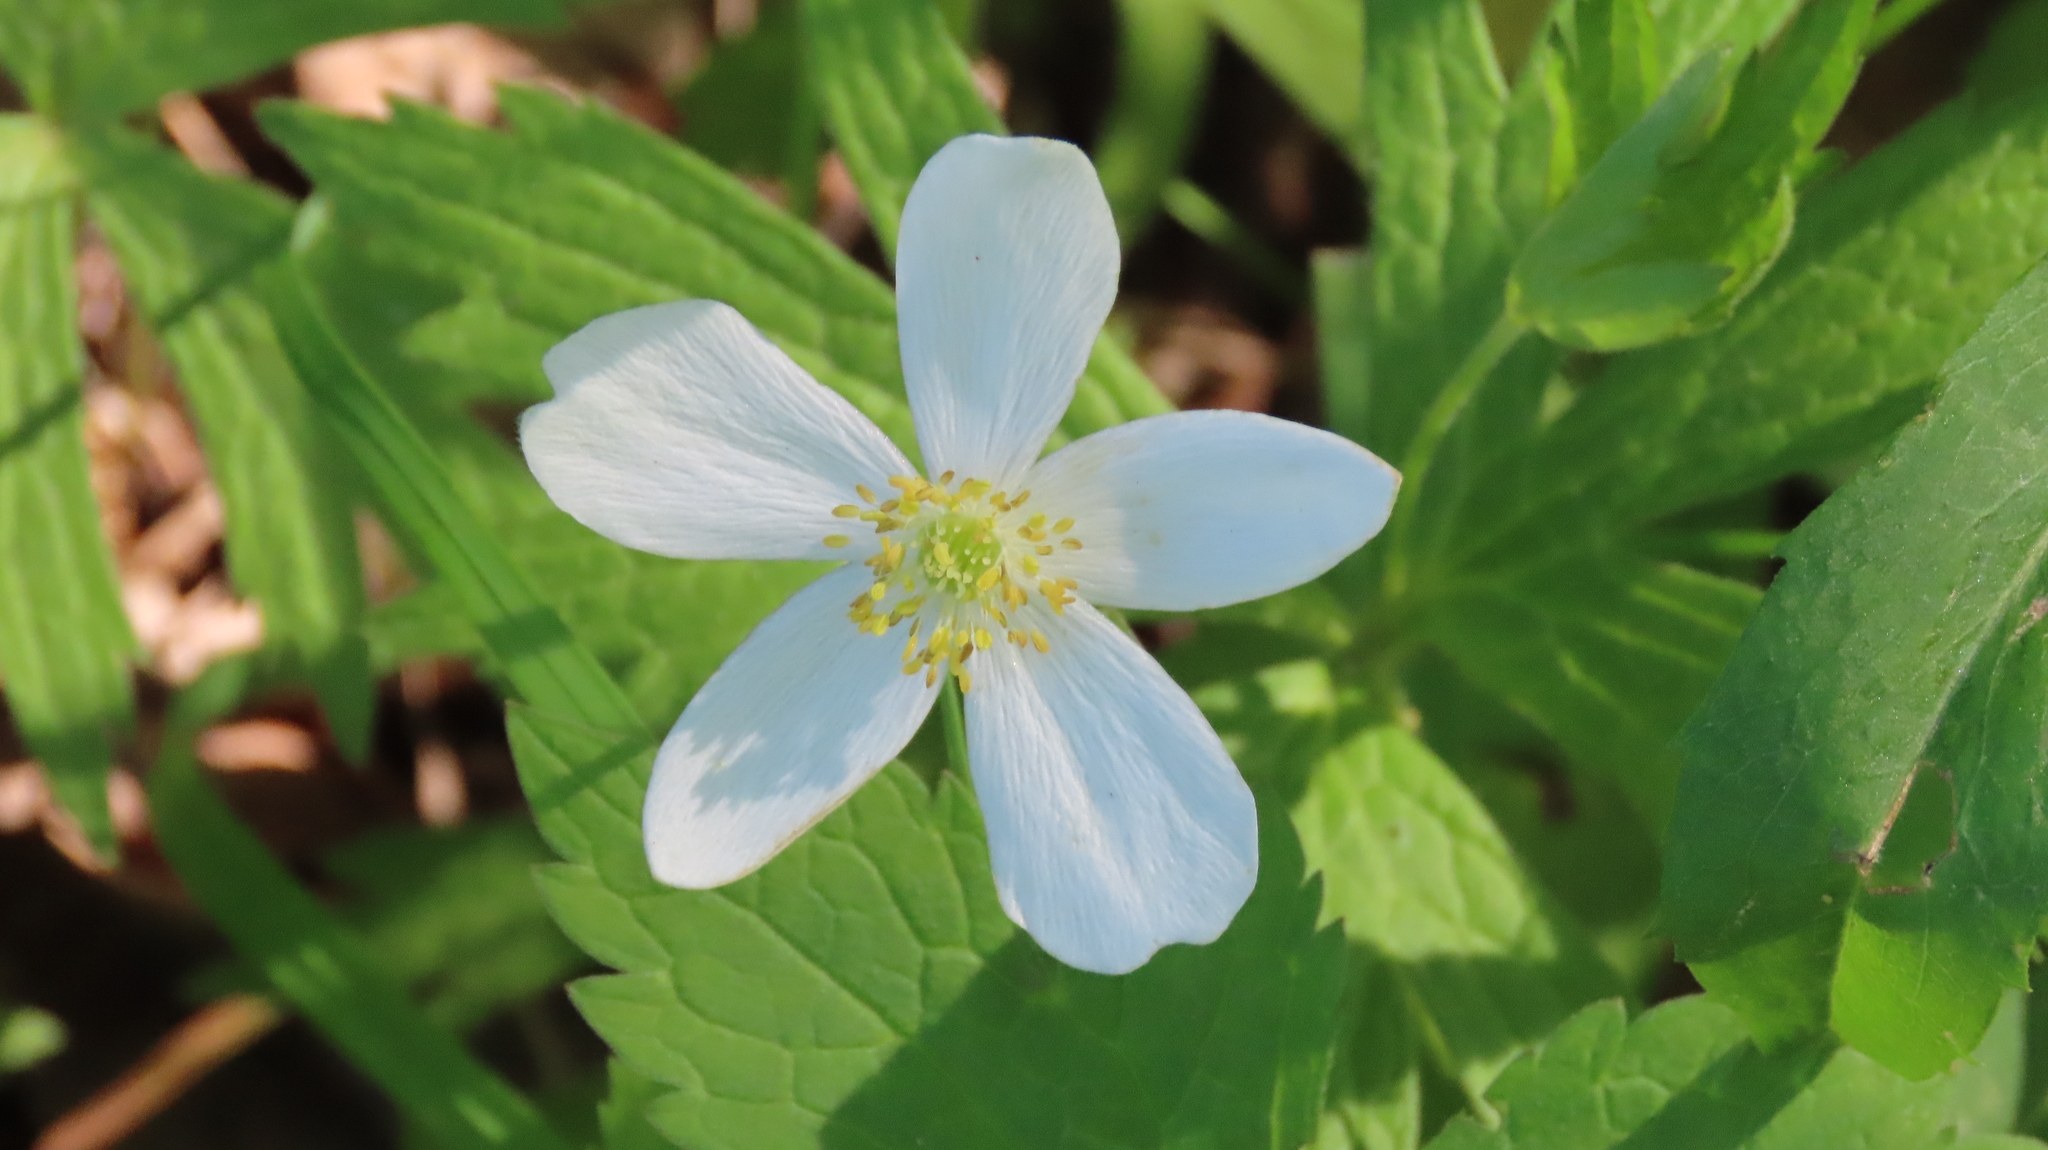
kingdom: Plantae
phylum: Tracheophyta
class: Magnoliopsida
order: Ranunculales
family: Ranunculaceae
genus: Anemonastrum
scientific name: Anemonastrum canadense
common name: Canada anemone
